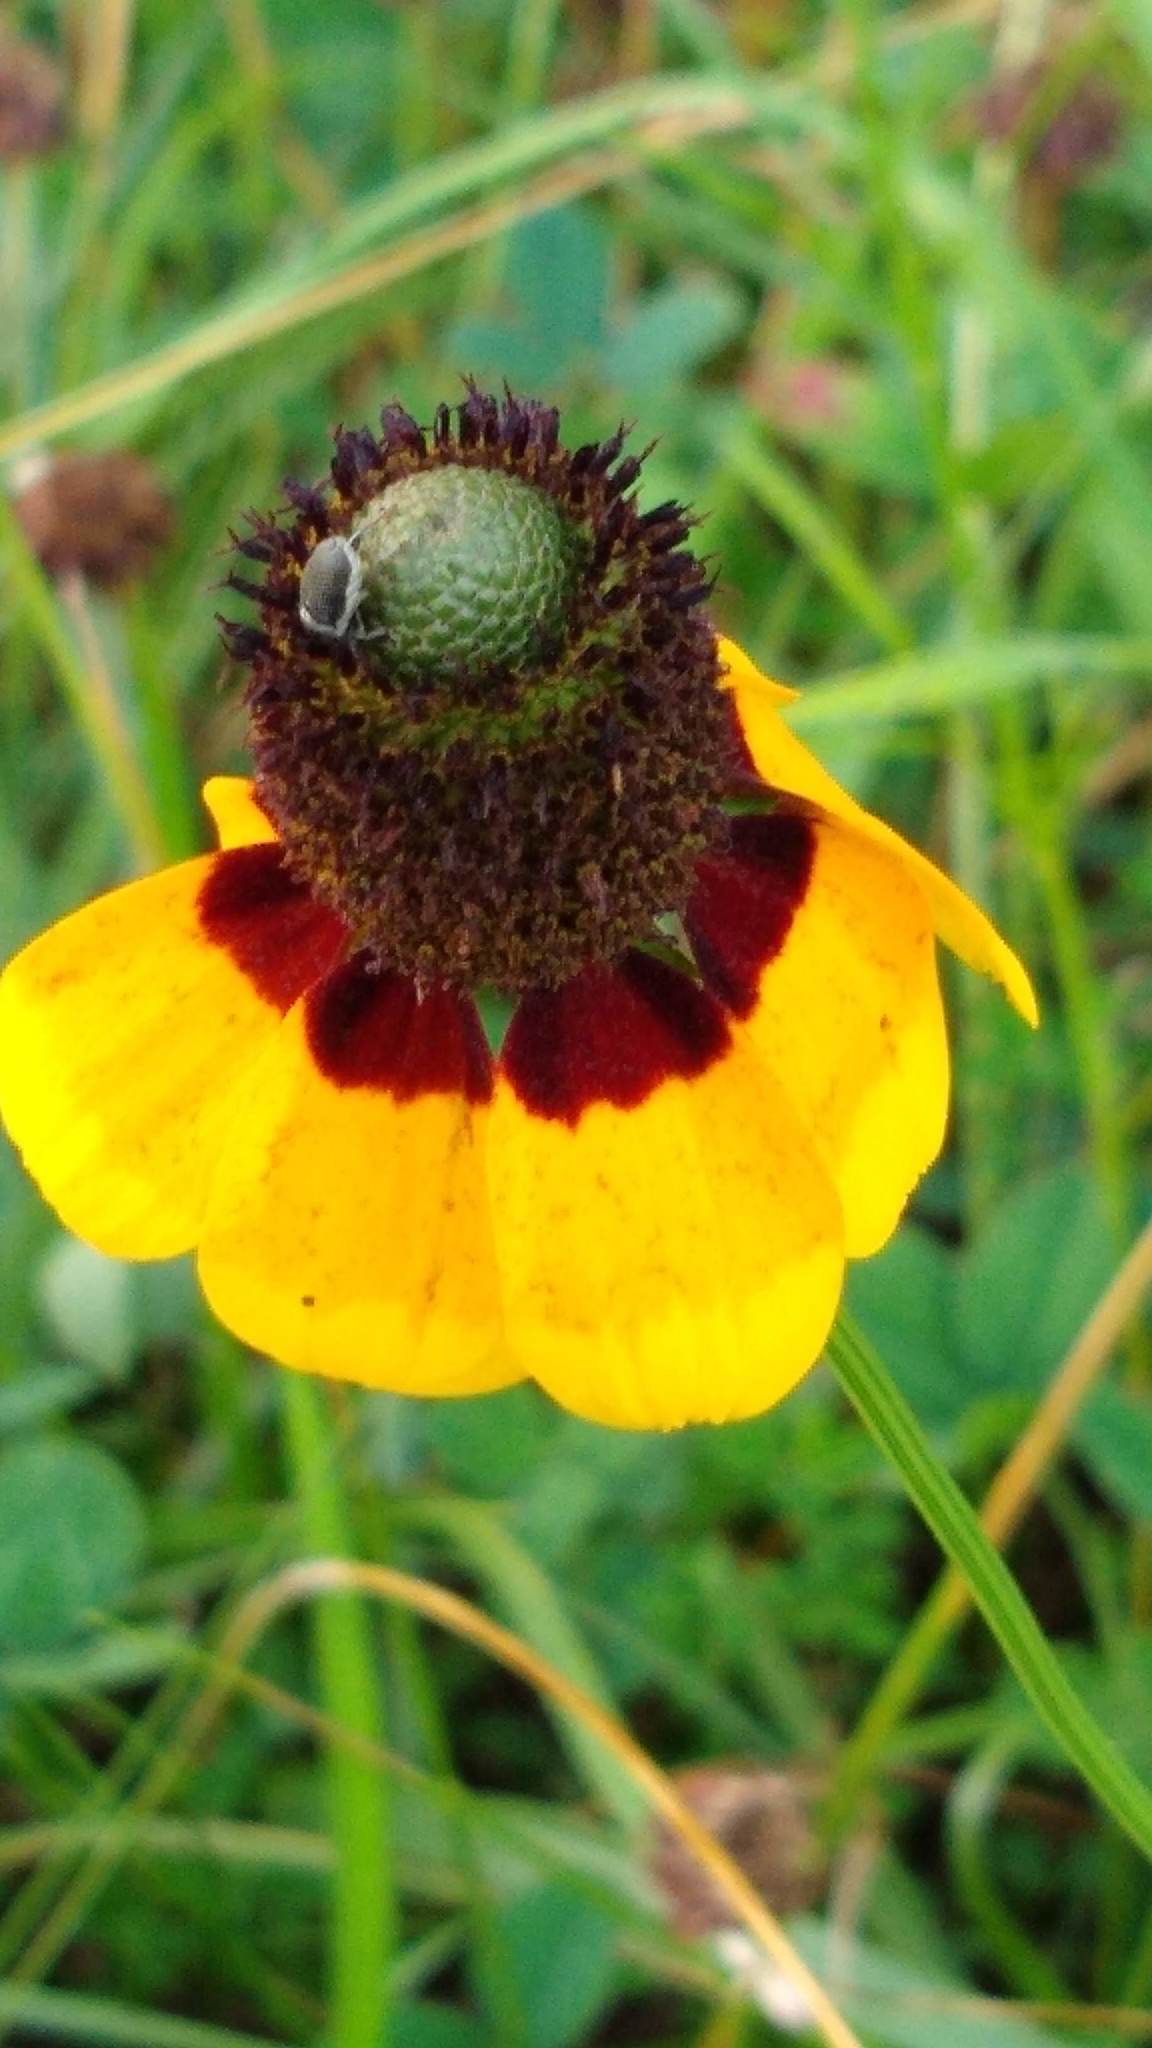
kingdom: Plantae
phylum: Tracheophyta
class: Magnoliopsida
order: Asterales
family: Asteraceae
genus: Rudbeckia
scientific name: Rudbeckia amplexicaulis
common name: Clasping-leaf coneflower
